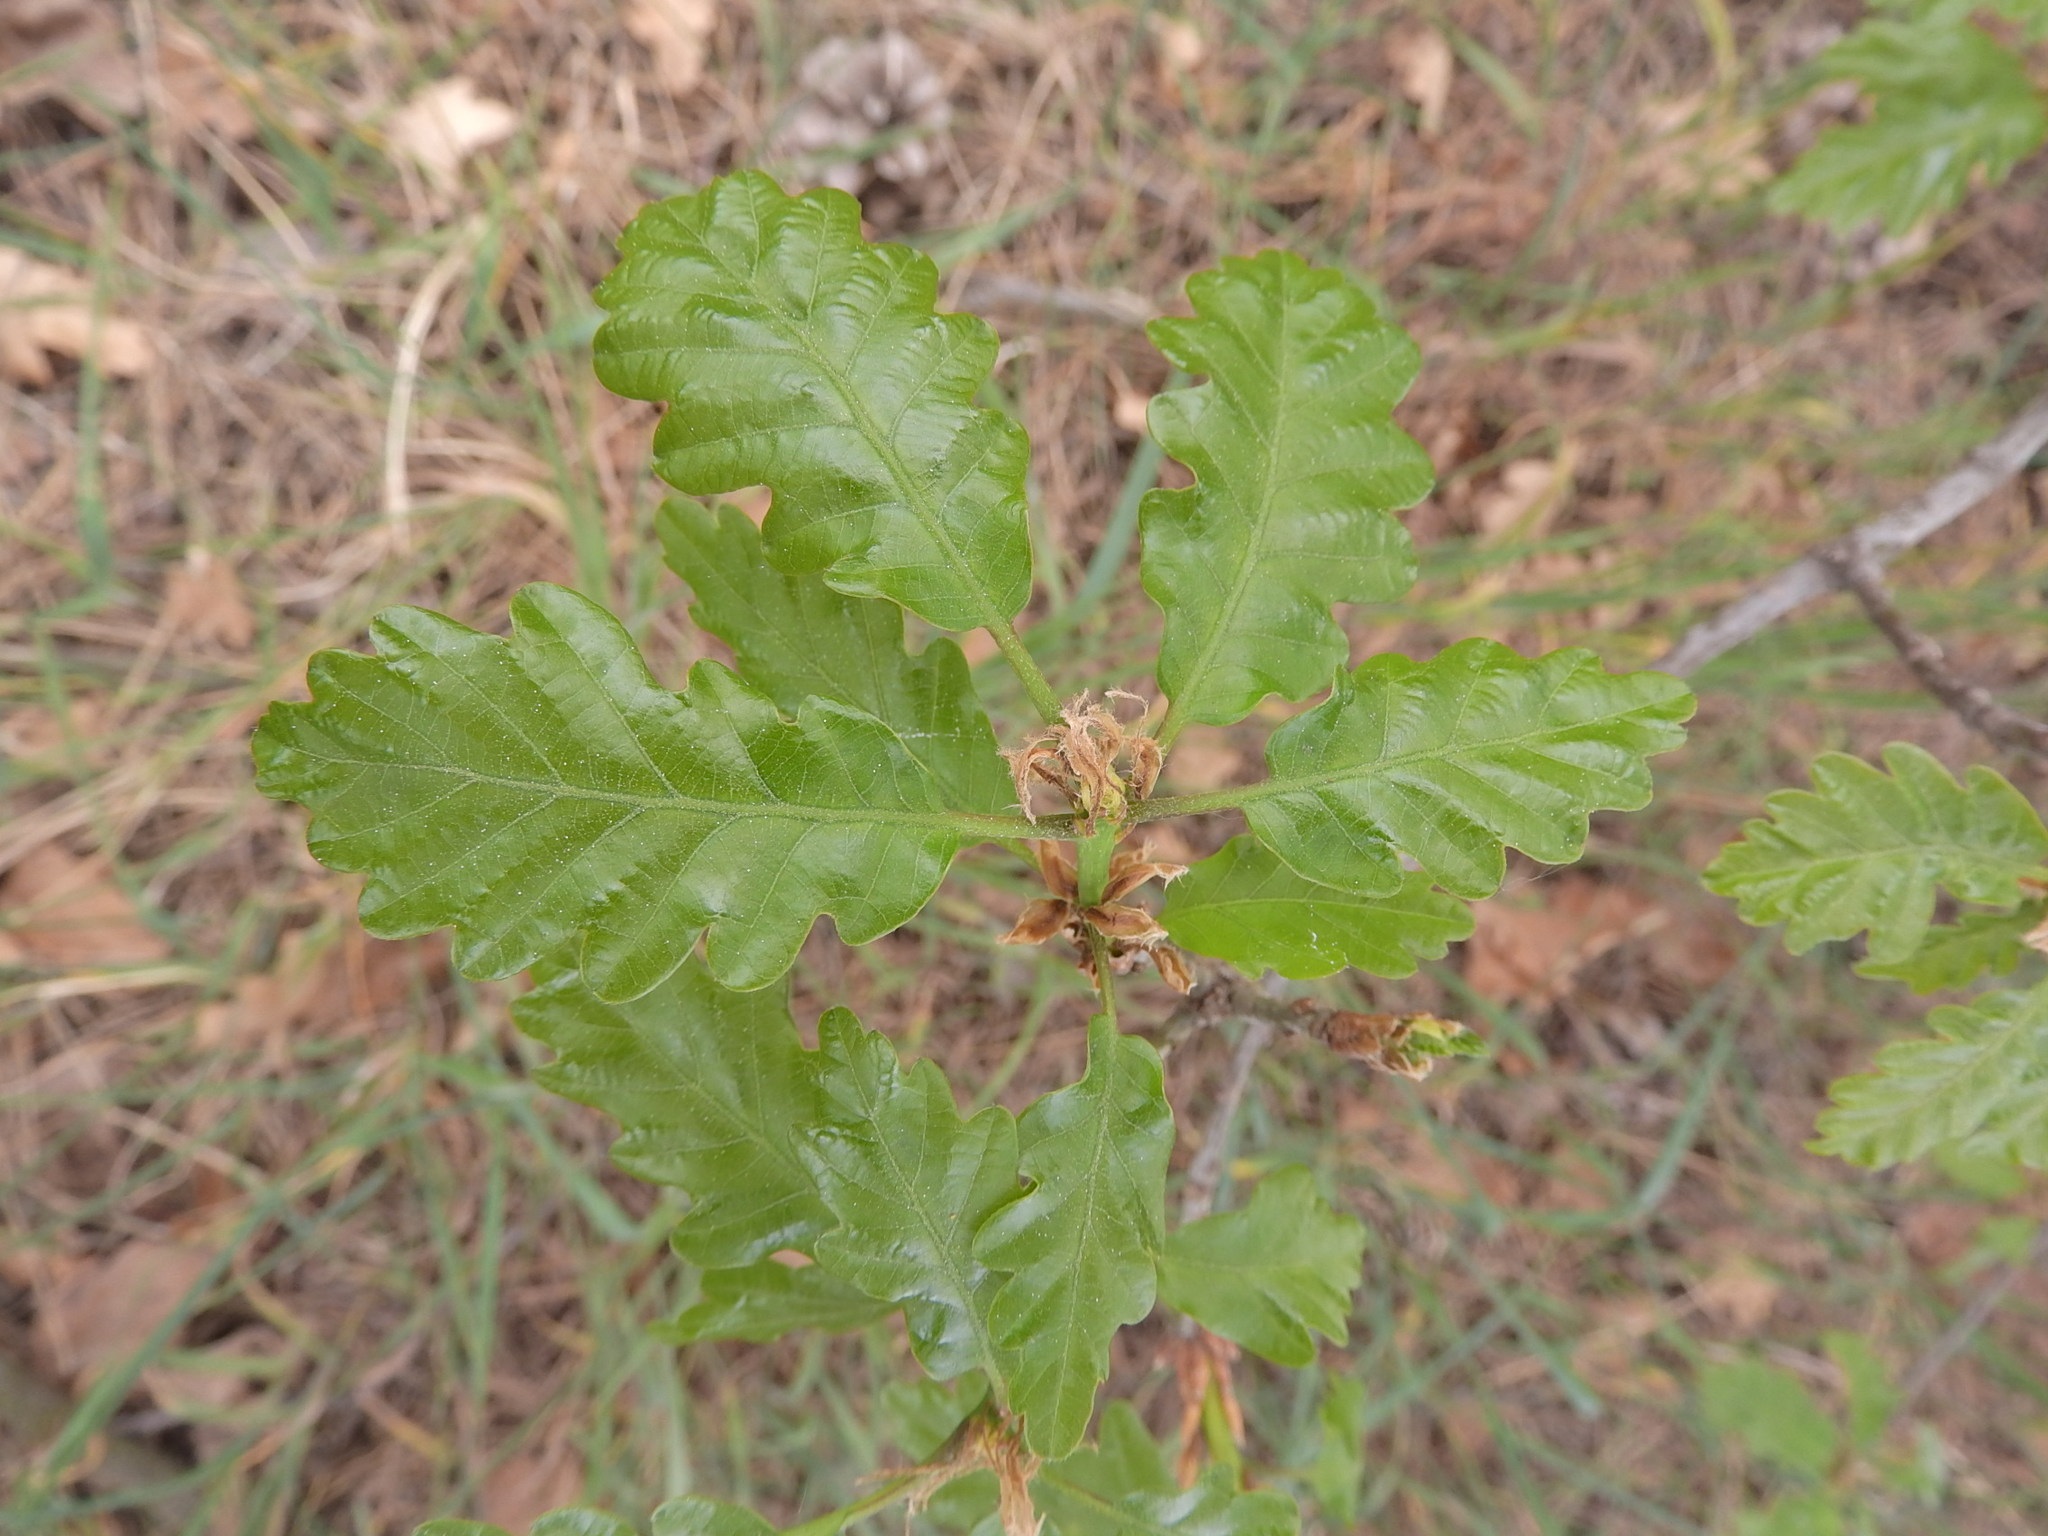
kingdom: Plantae
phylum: Tracheophyta
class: Magnoliopsida
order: Fagales
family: Fagaceae
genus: Quercus
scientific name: Quercus petraea
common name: Sessile oak
